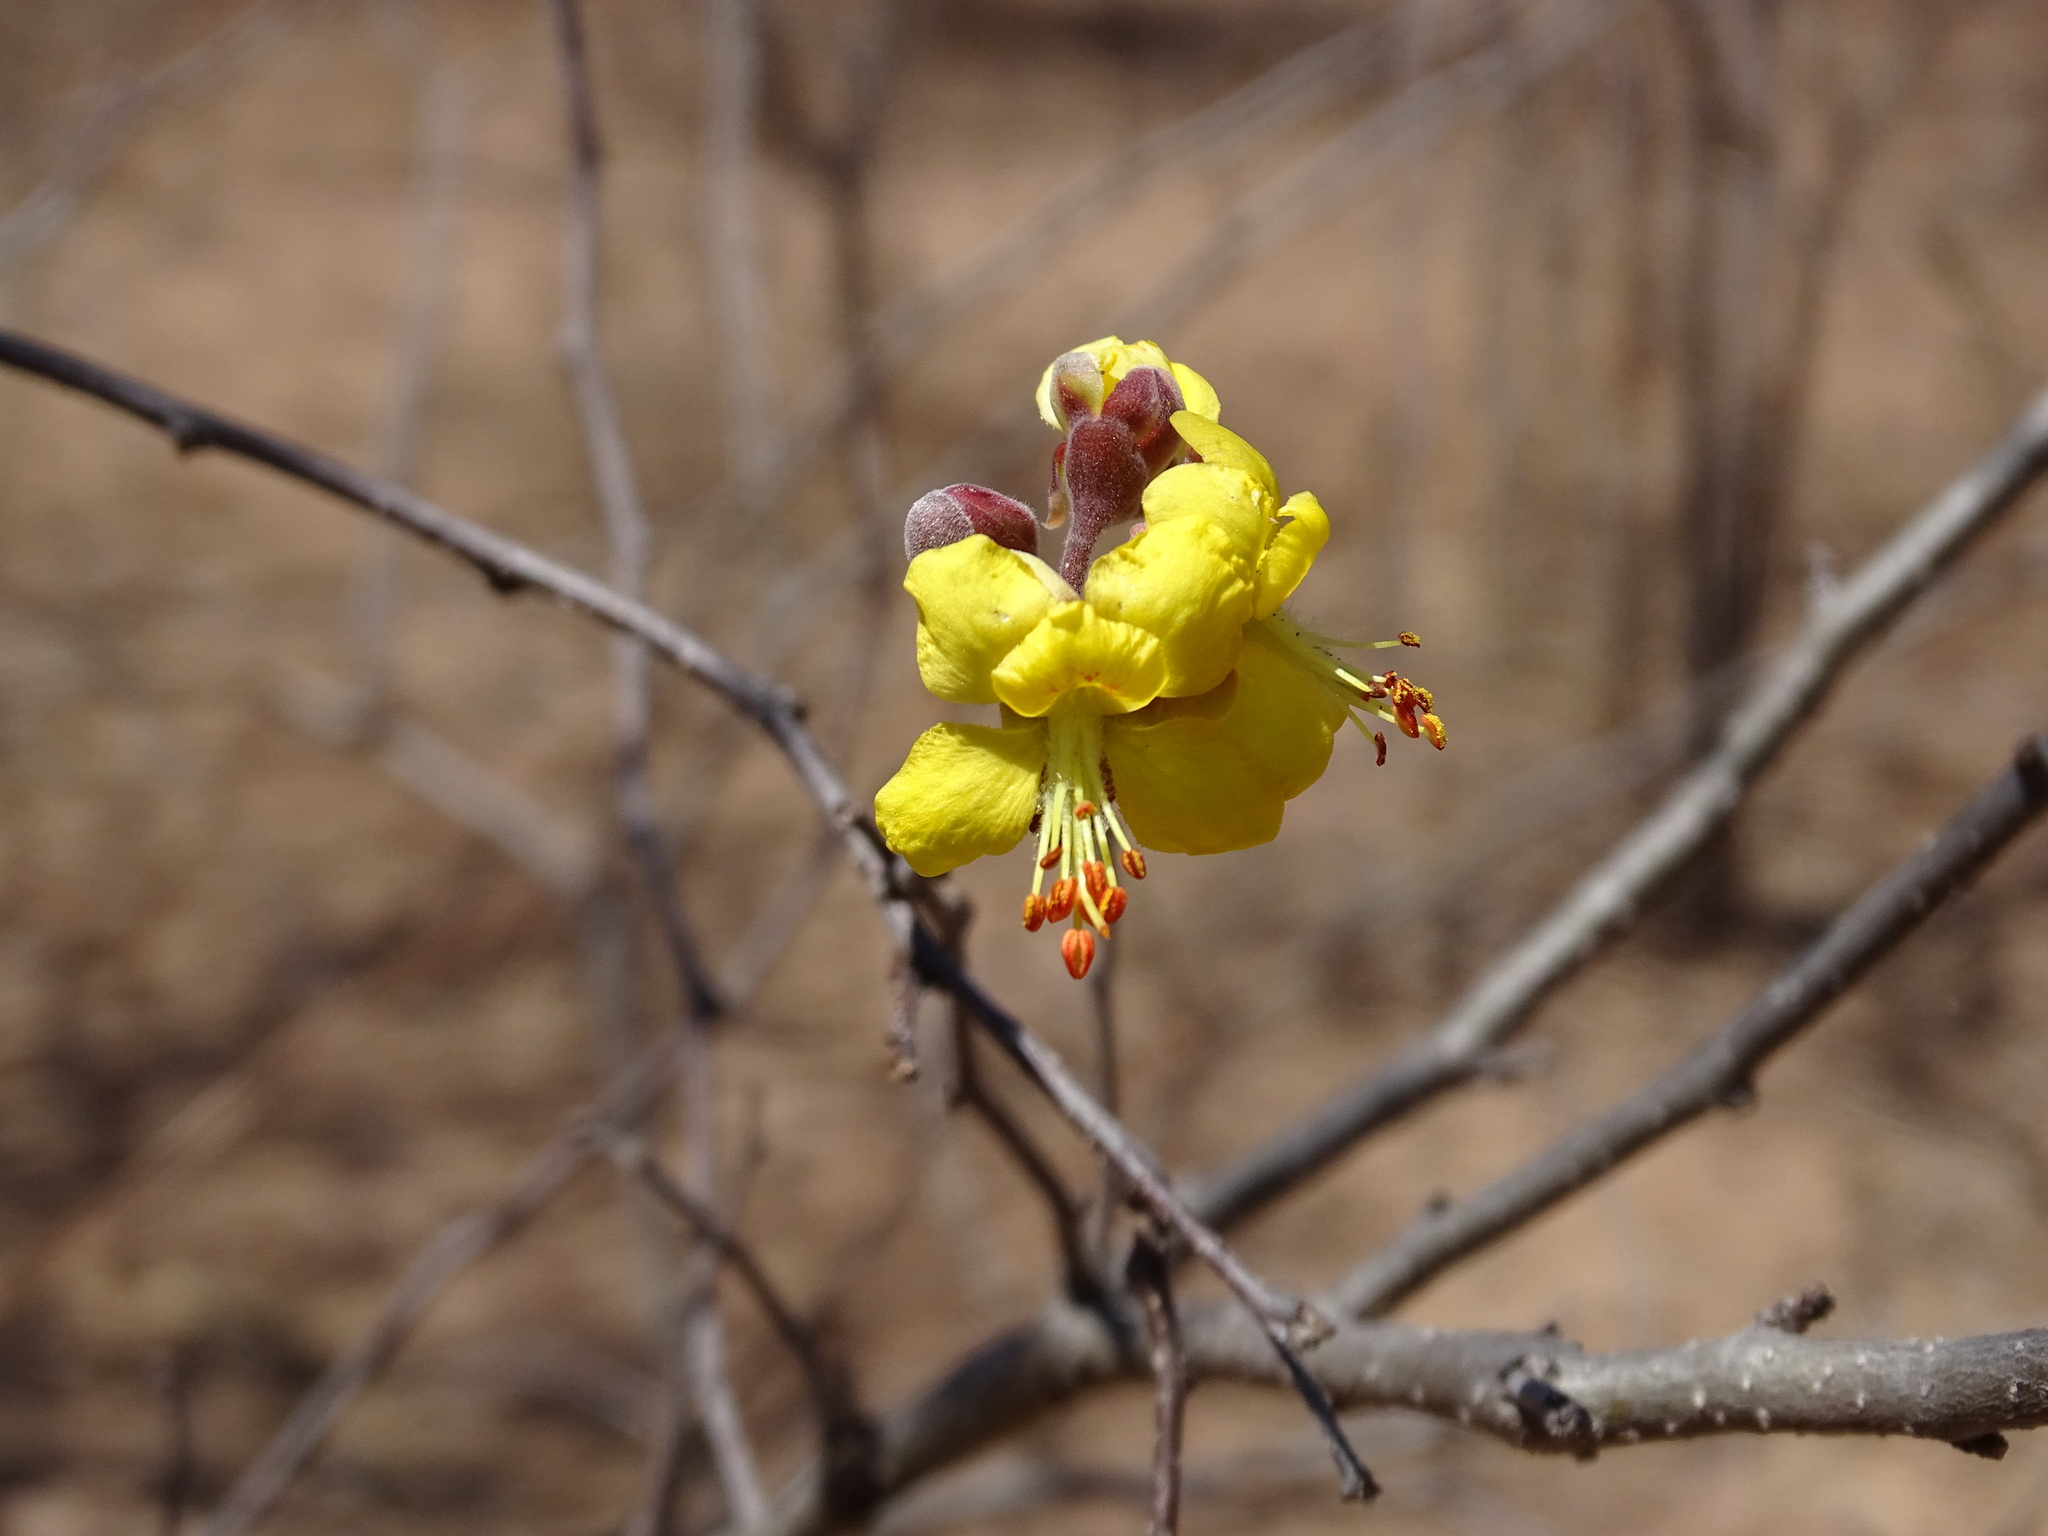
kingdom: Plantae
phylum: Tracheophyta
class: Magnoliopsida
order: Fabales
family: Fabaceae
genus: Erythrostemon
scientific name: Erythrostemon palmeri
